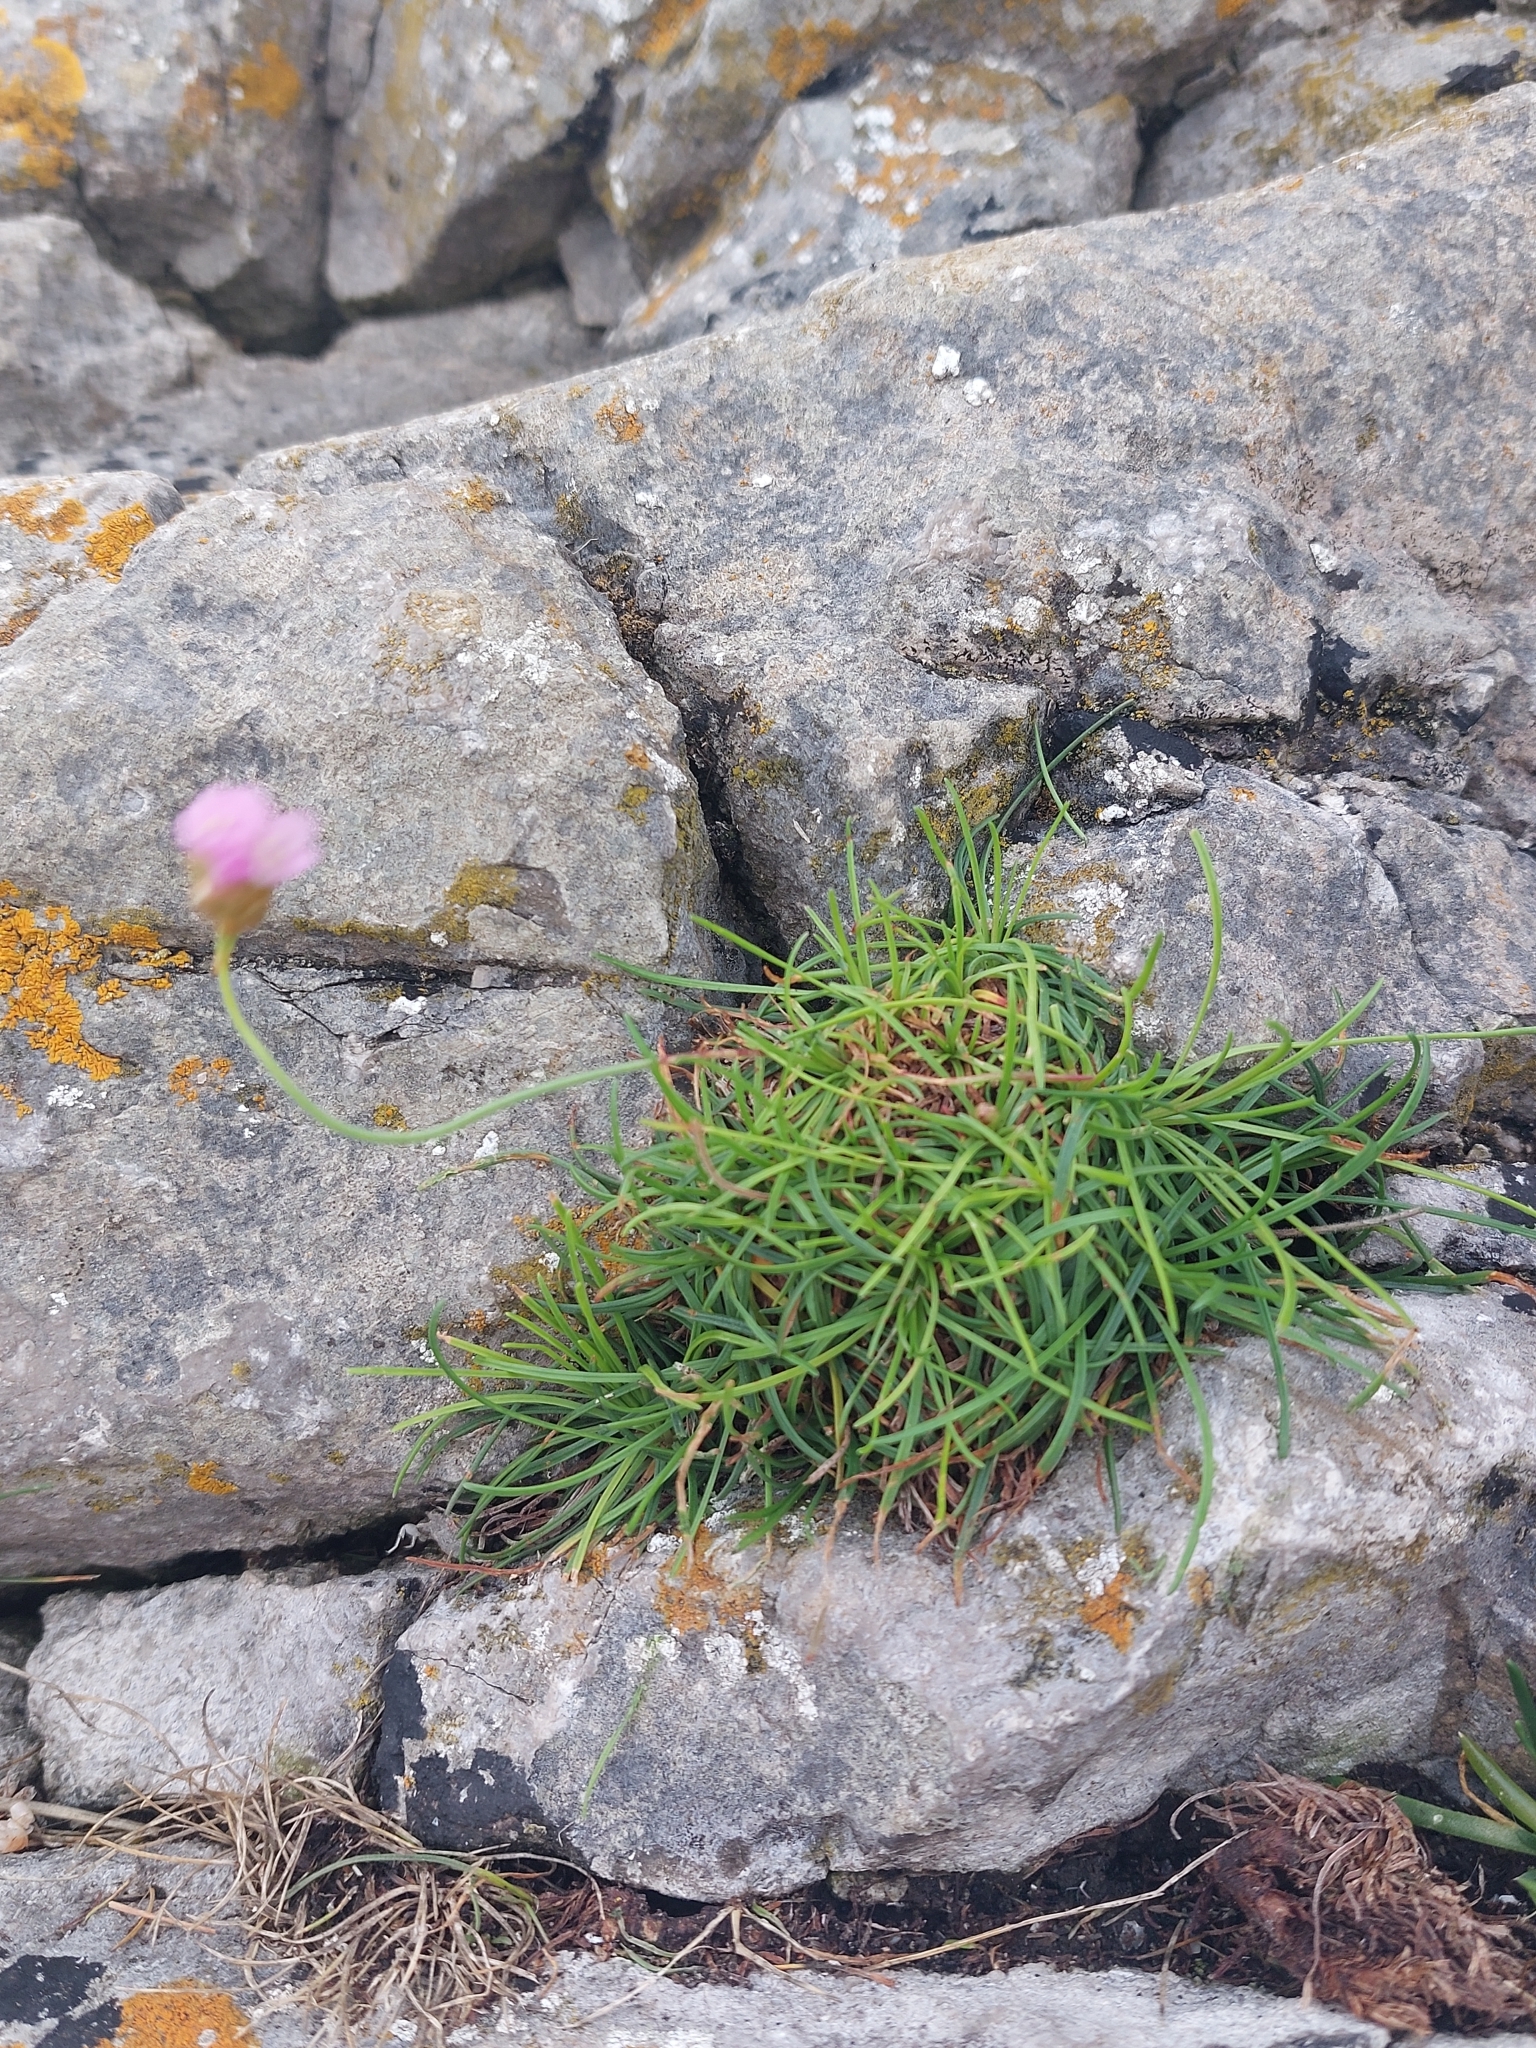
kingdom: Plantae
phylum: Tracheophyta
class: Magnoliopsida
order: Caryophyllales
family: Plumbaginaceae
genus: Armeria
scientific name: Armeria maritima
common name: Thrift
